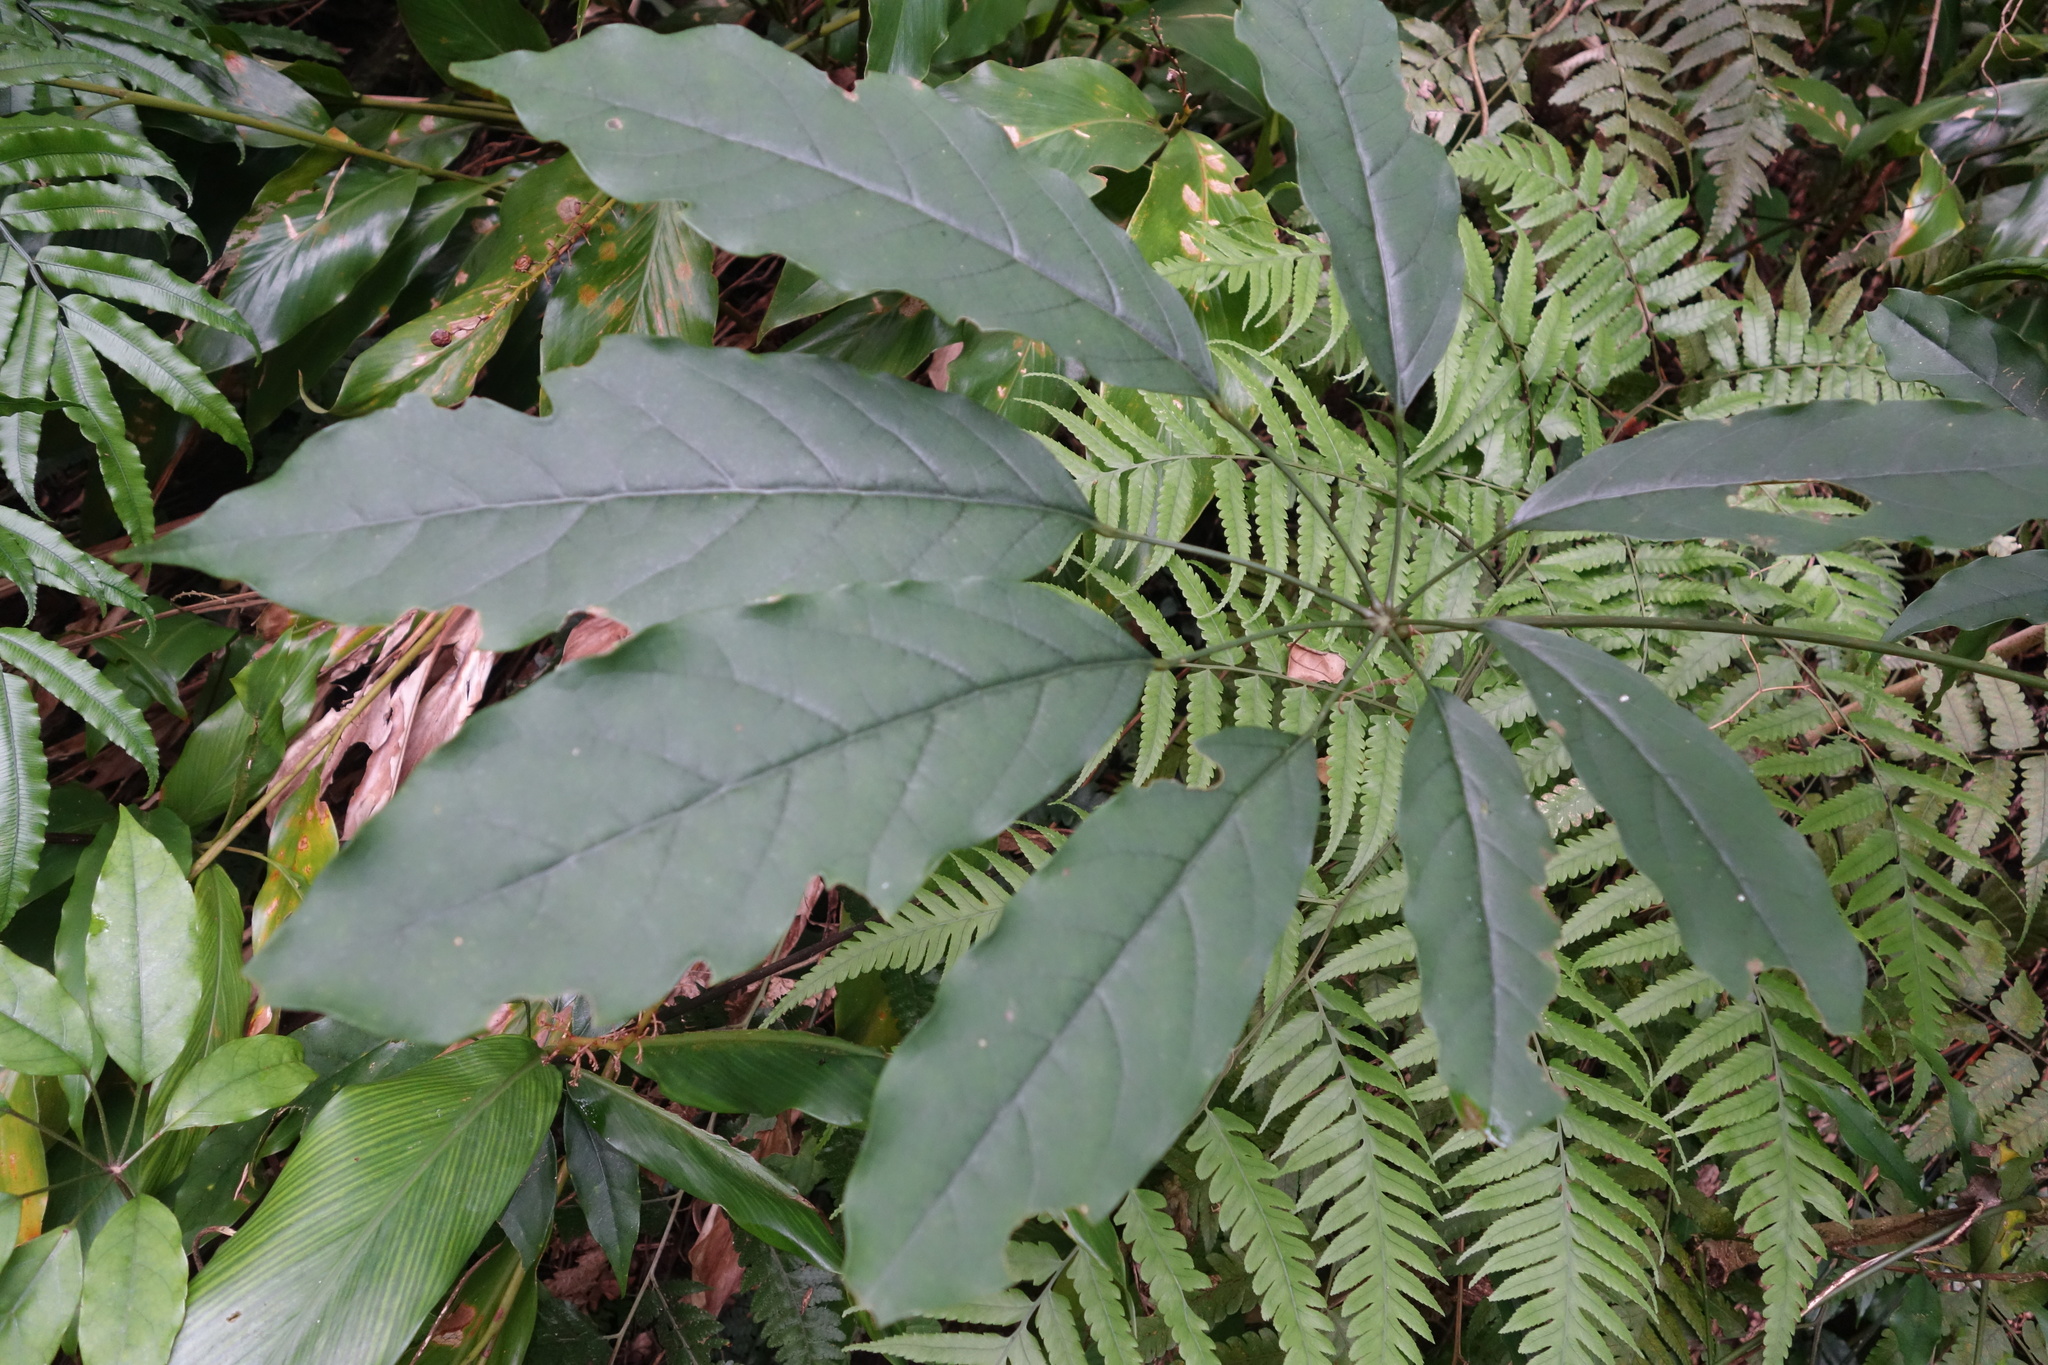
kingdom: Plantae
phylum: Tracheophyta
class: Magnoliopsida
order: Apiales
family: Araliaceae
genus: Heptapleurum
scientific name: Heptapleurum heptaphyllum
